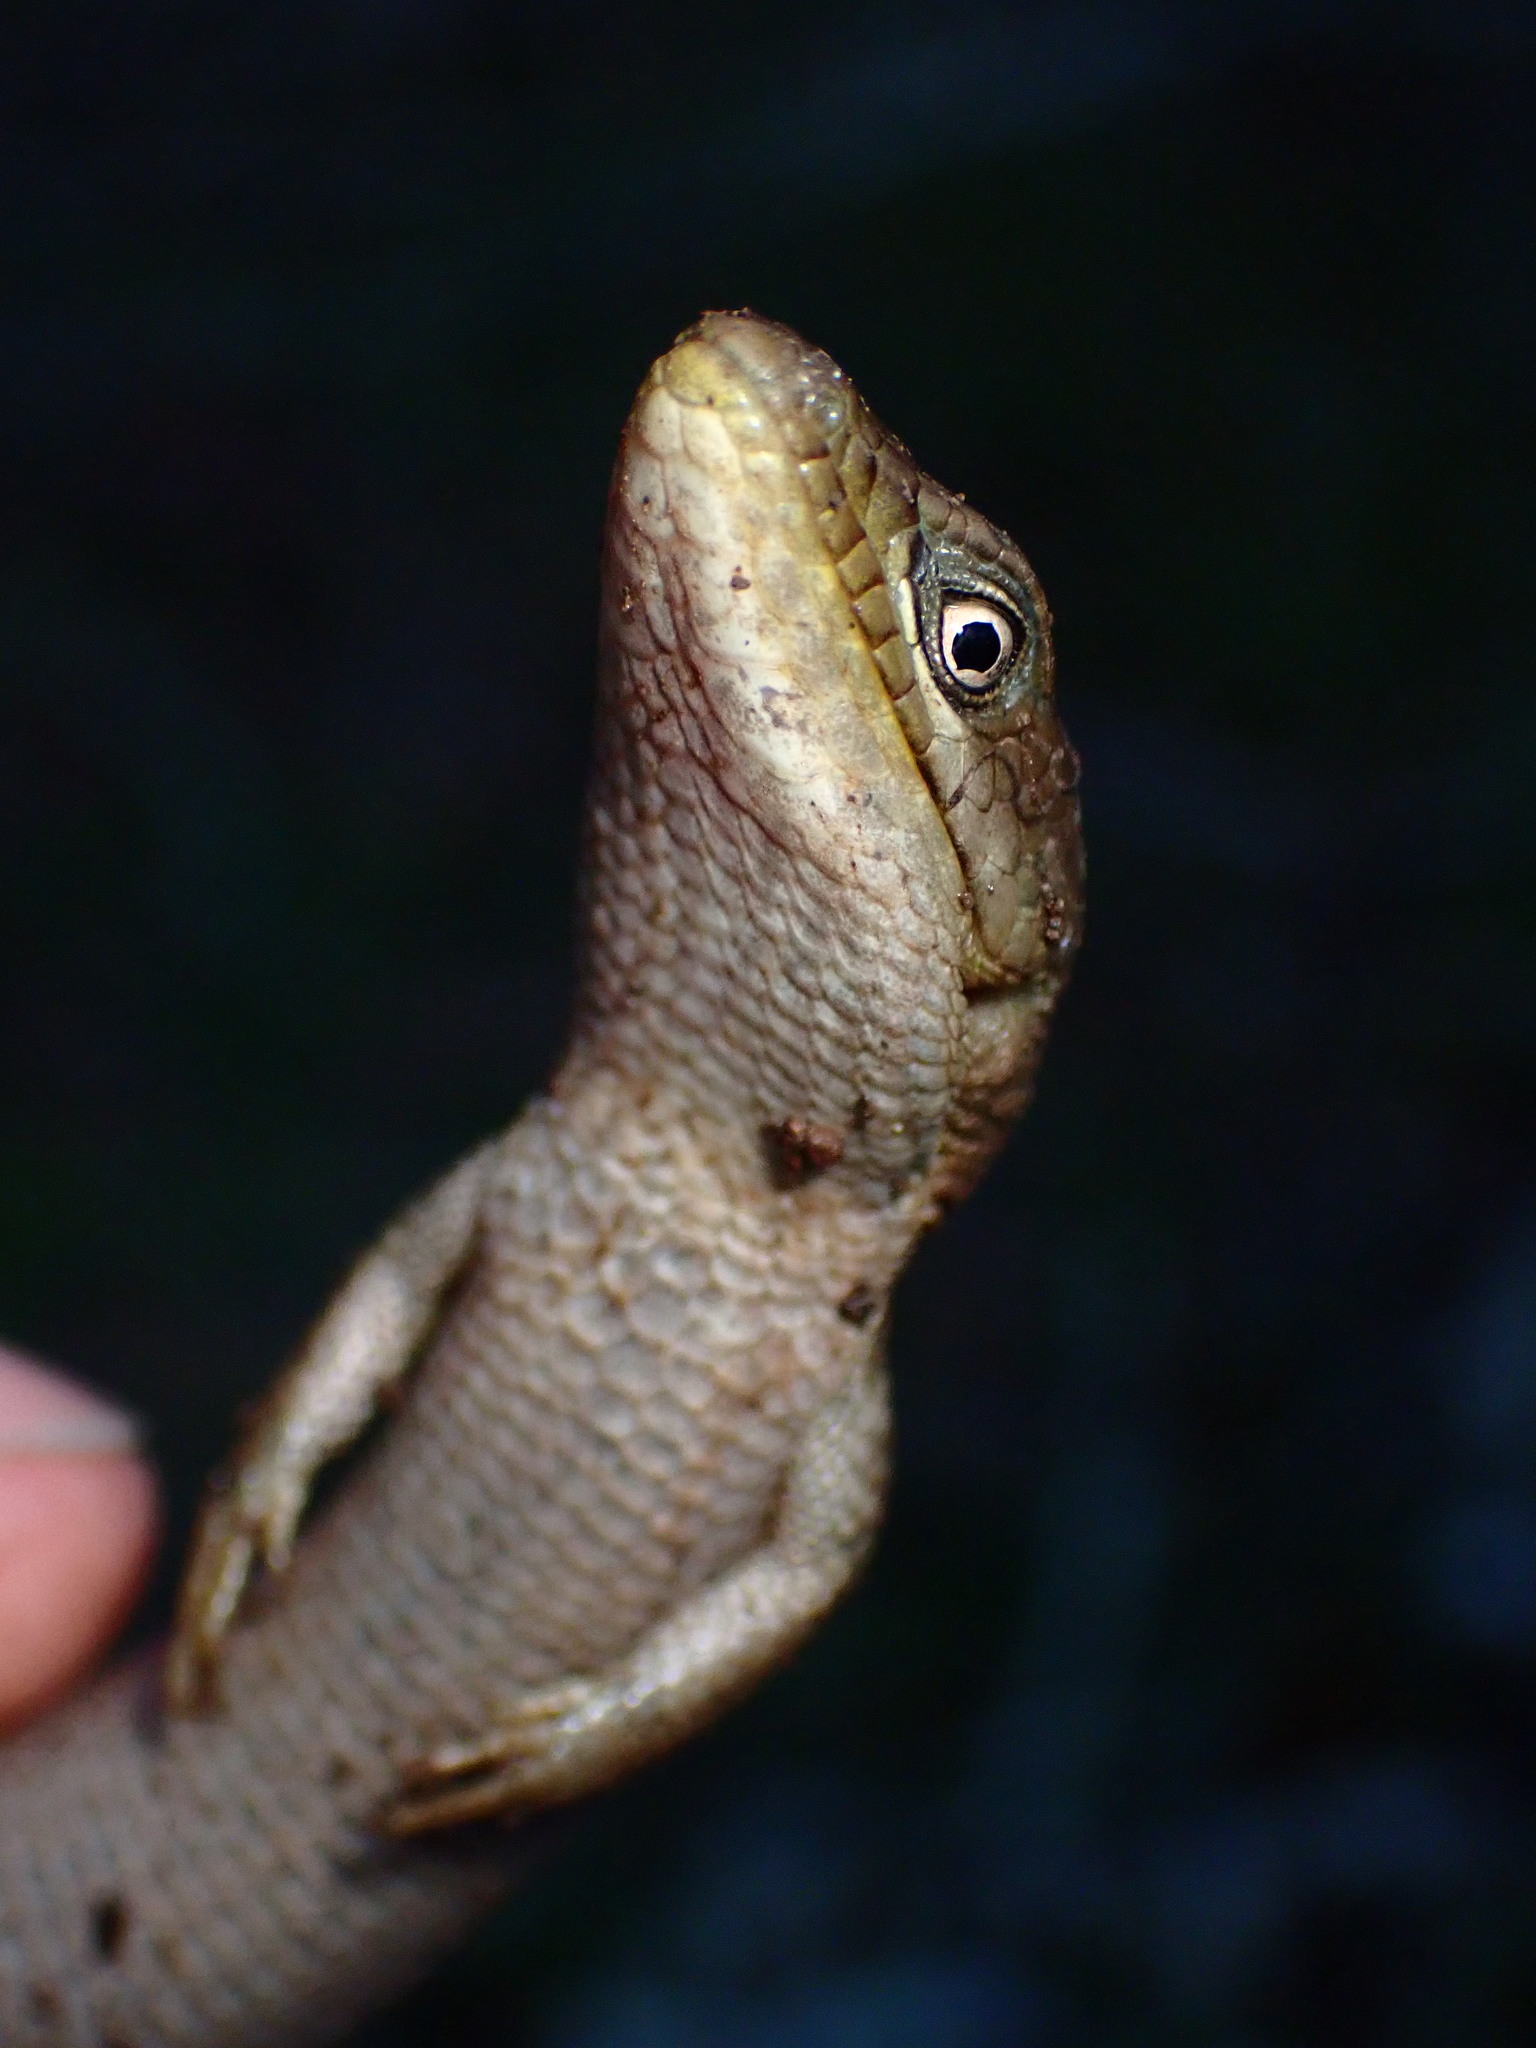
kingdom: Animalia
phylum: Chordata
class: Squamata
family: Anguidae
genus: Elgaria
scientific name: Elgaria multicarinata
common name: Southern alligator lizard
